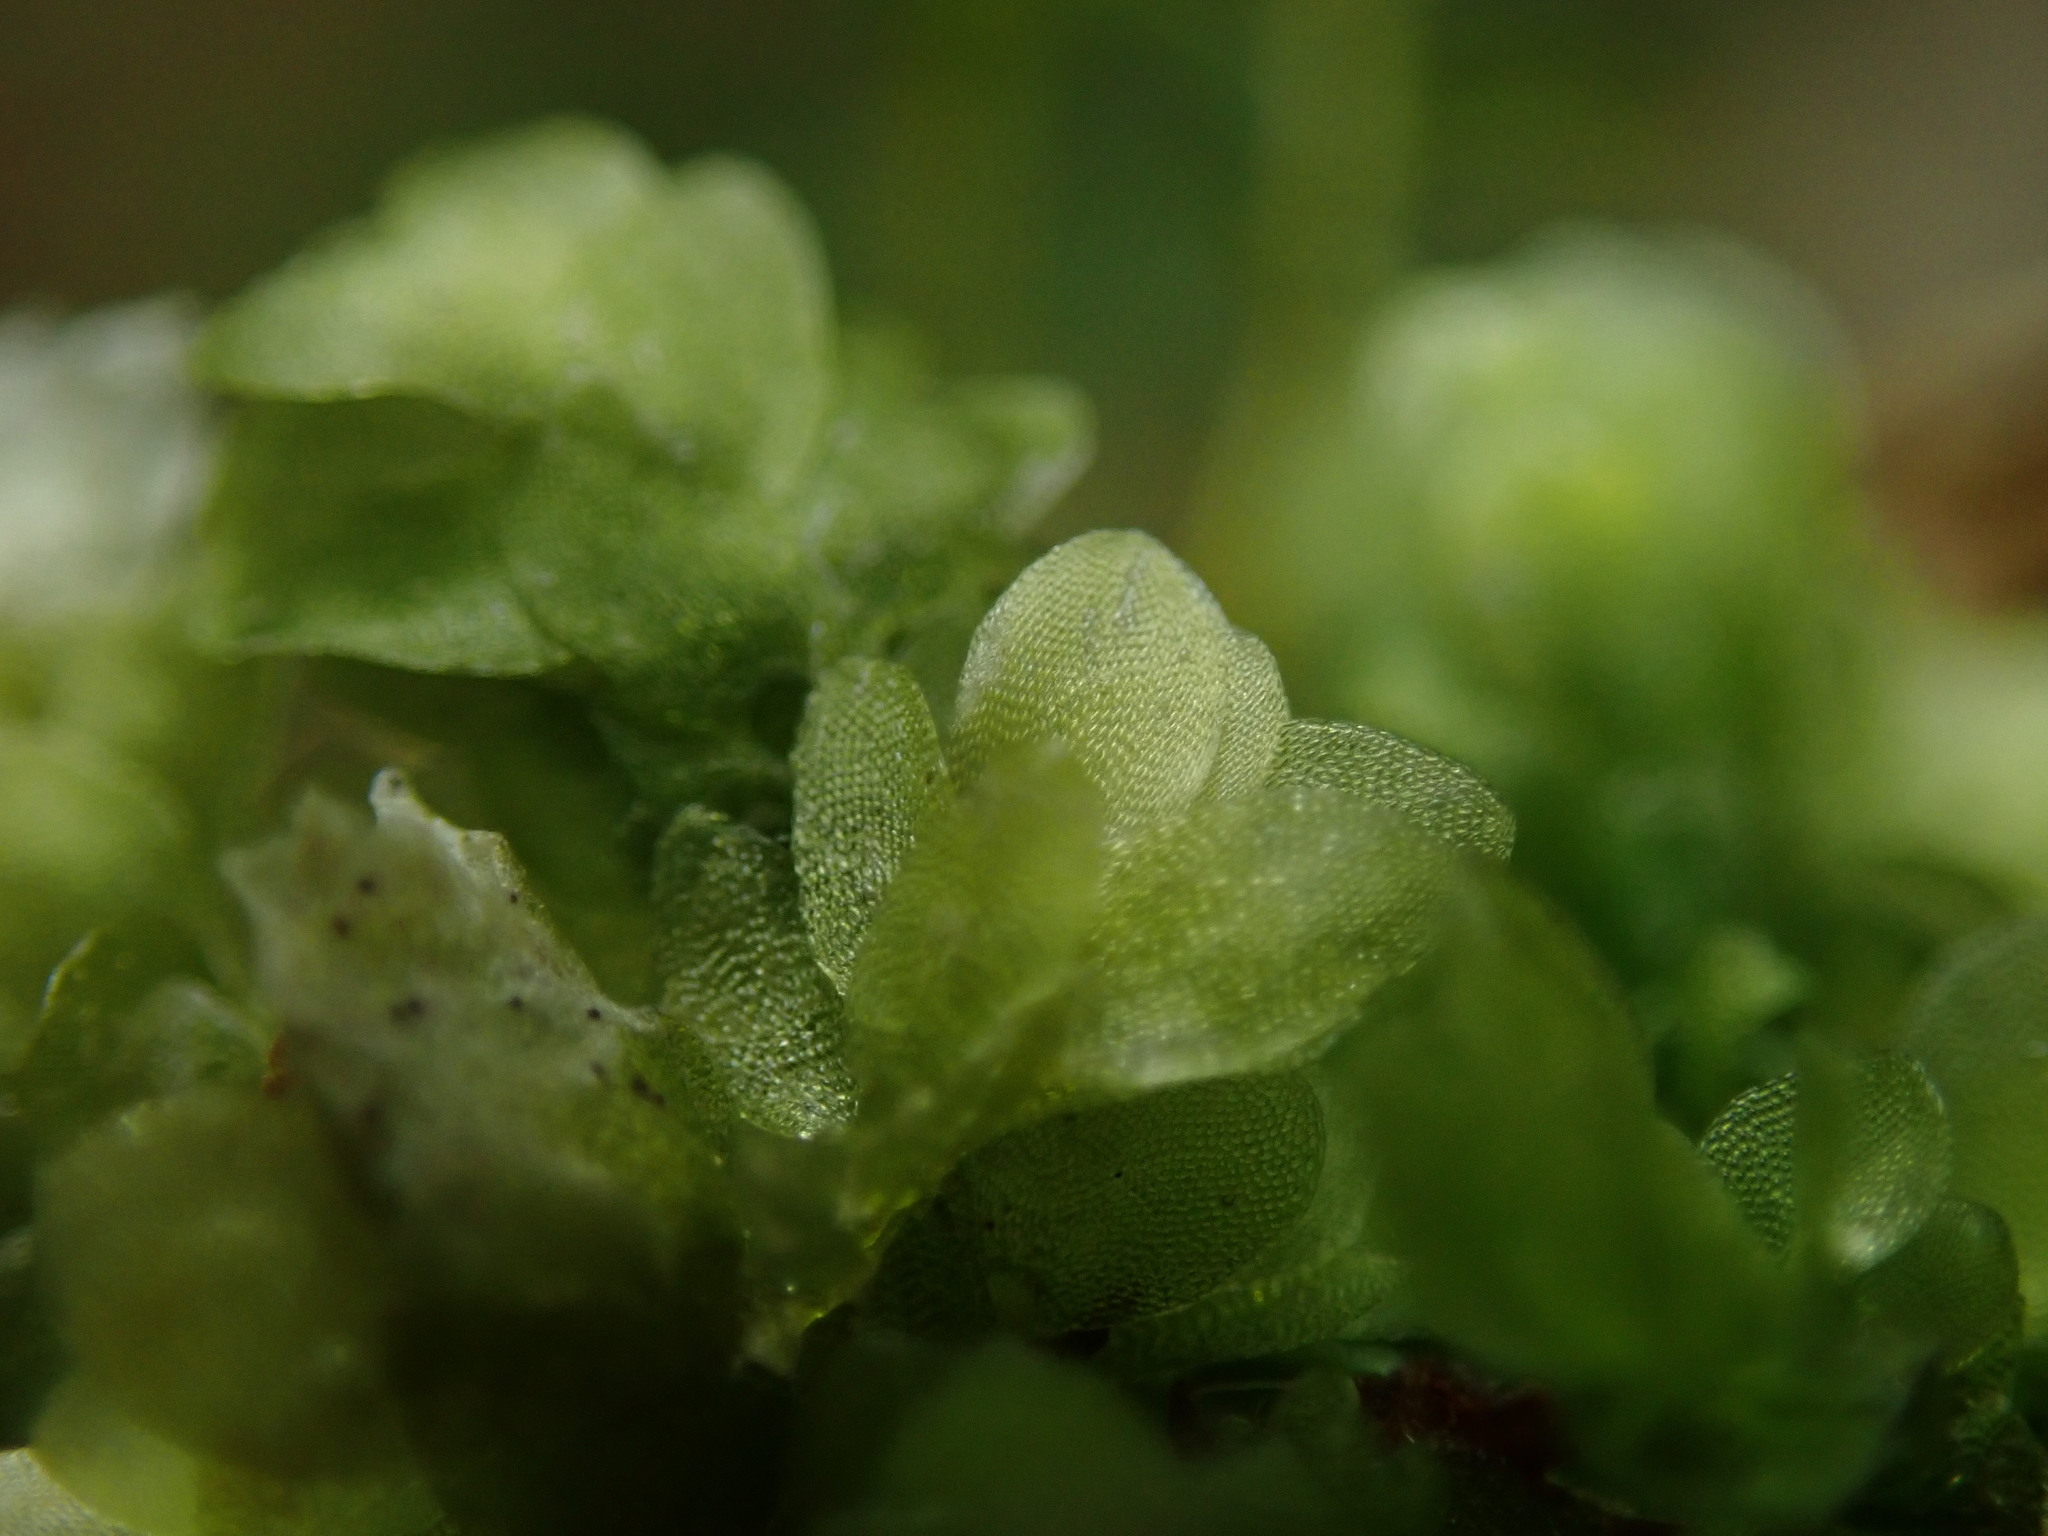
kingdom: Plantae
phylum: Bryophyta
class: Bryopsida
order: Hookeriales
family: Hookeriaceae
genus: Hookeria
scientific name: Hookeria lucens
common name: Shining hookeria
